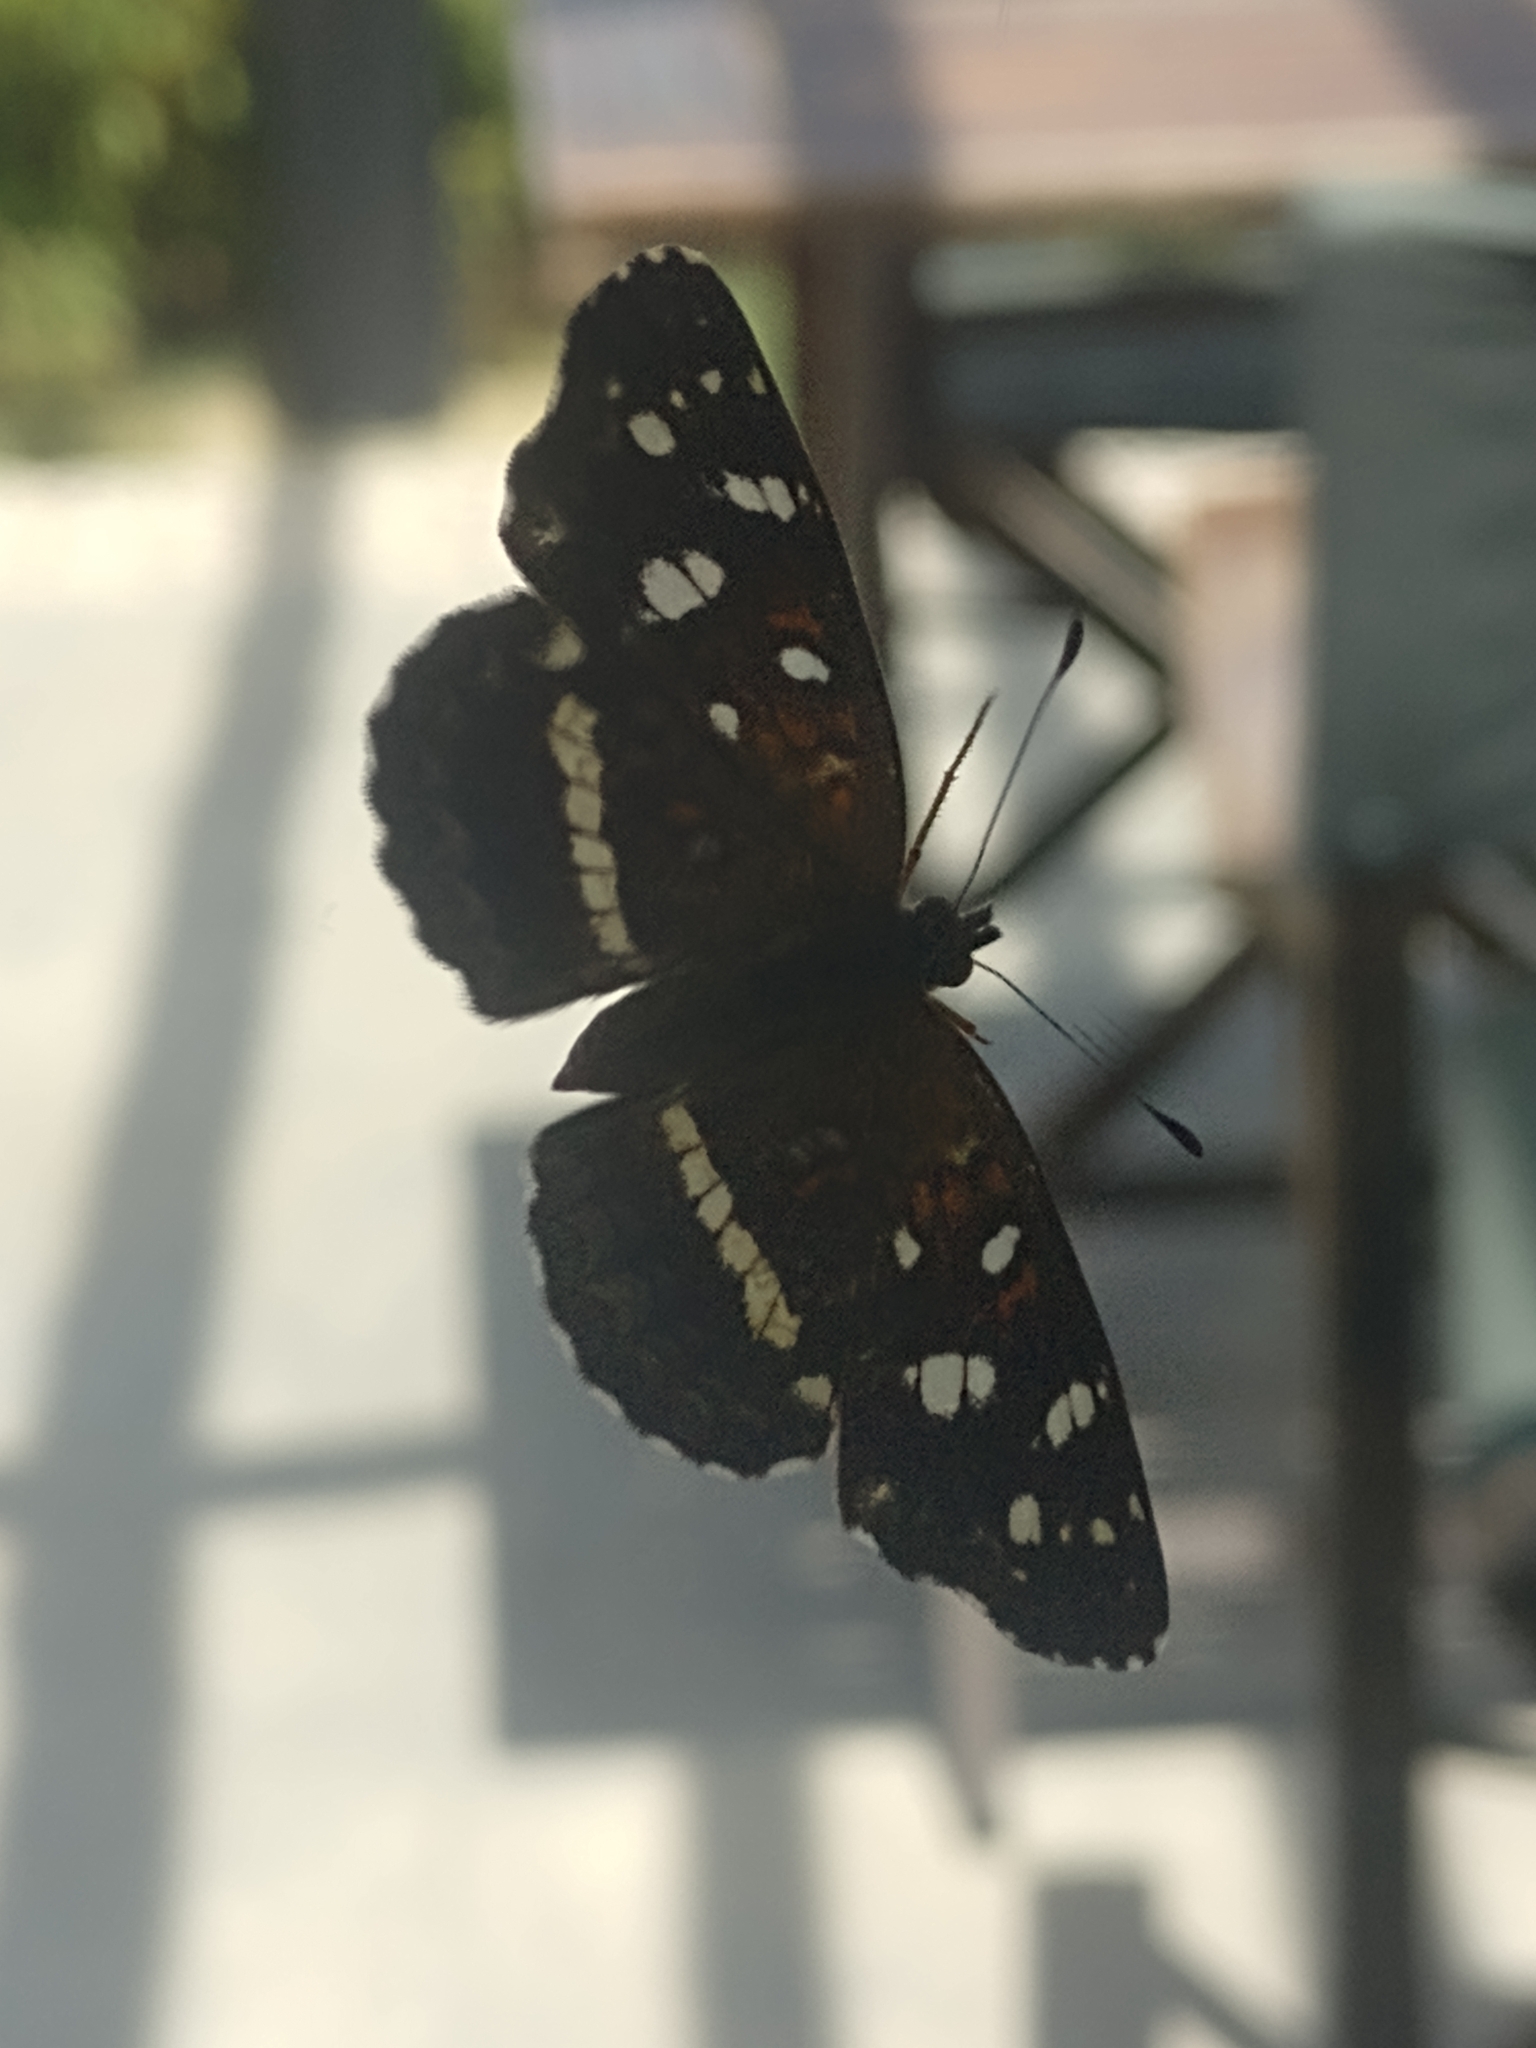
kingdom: Animalia
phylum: Arthropoda
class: Insecta
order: Lepidoptera
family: Nymphalidae
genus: Ortilia
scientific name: Ortilia ithra
